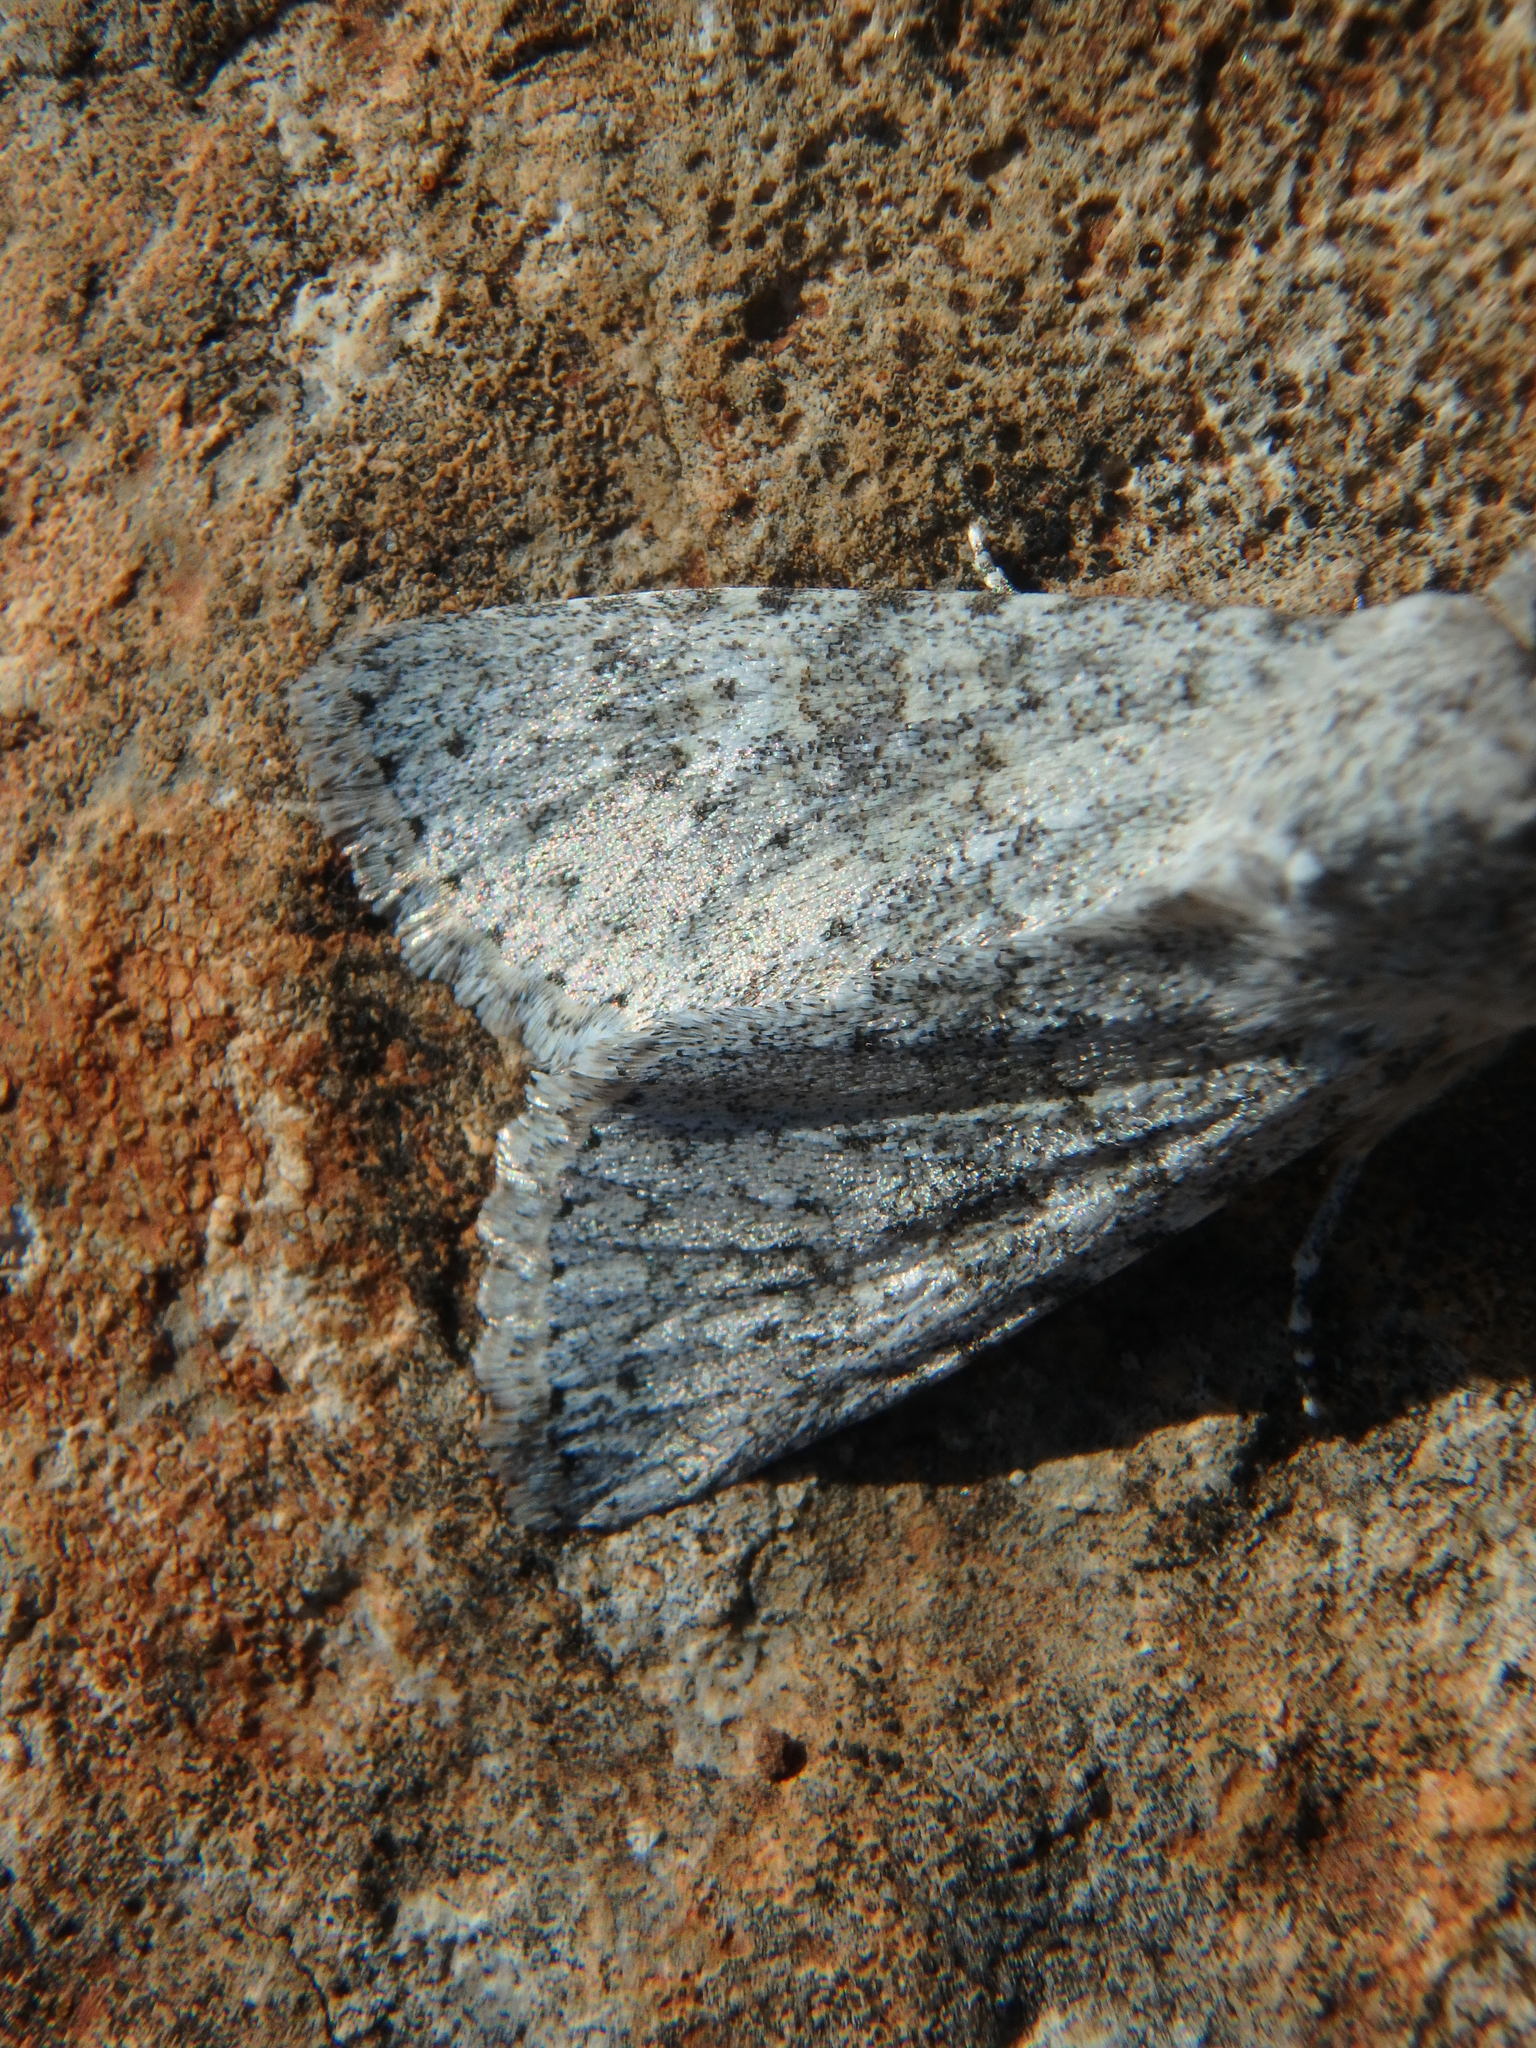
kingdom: Animalia
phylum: Arthropoda
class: Insecta
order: Lepidoptera
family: Noctuidae
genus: Aporophyla
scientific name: Aporophyla canescens
